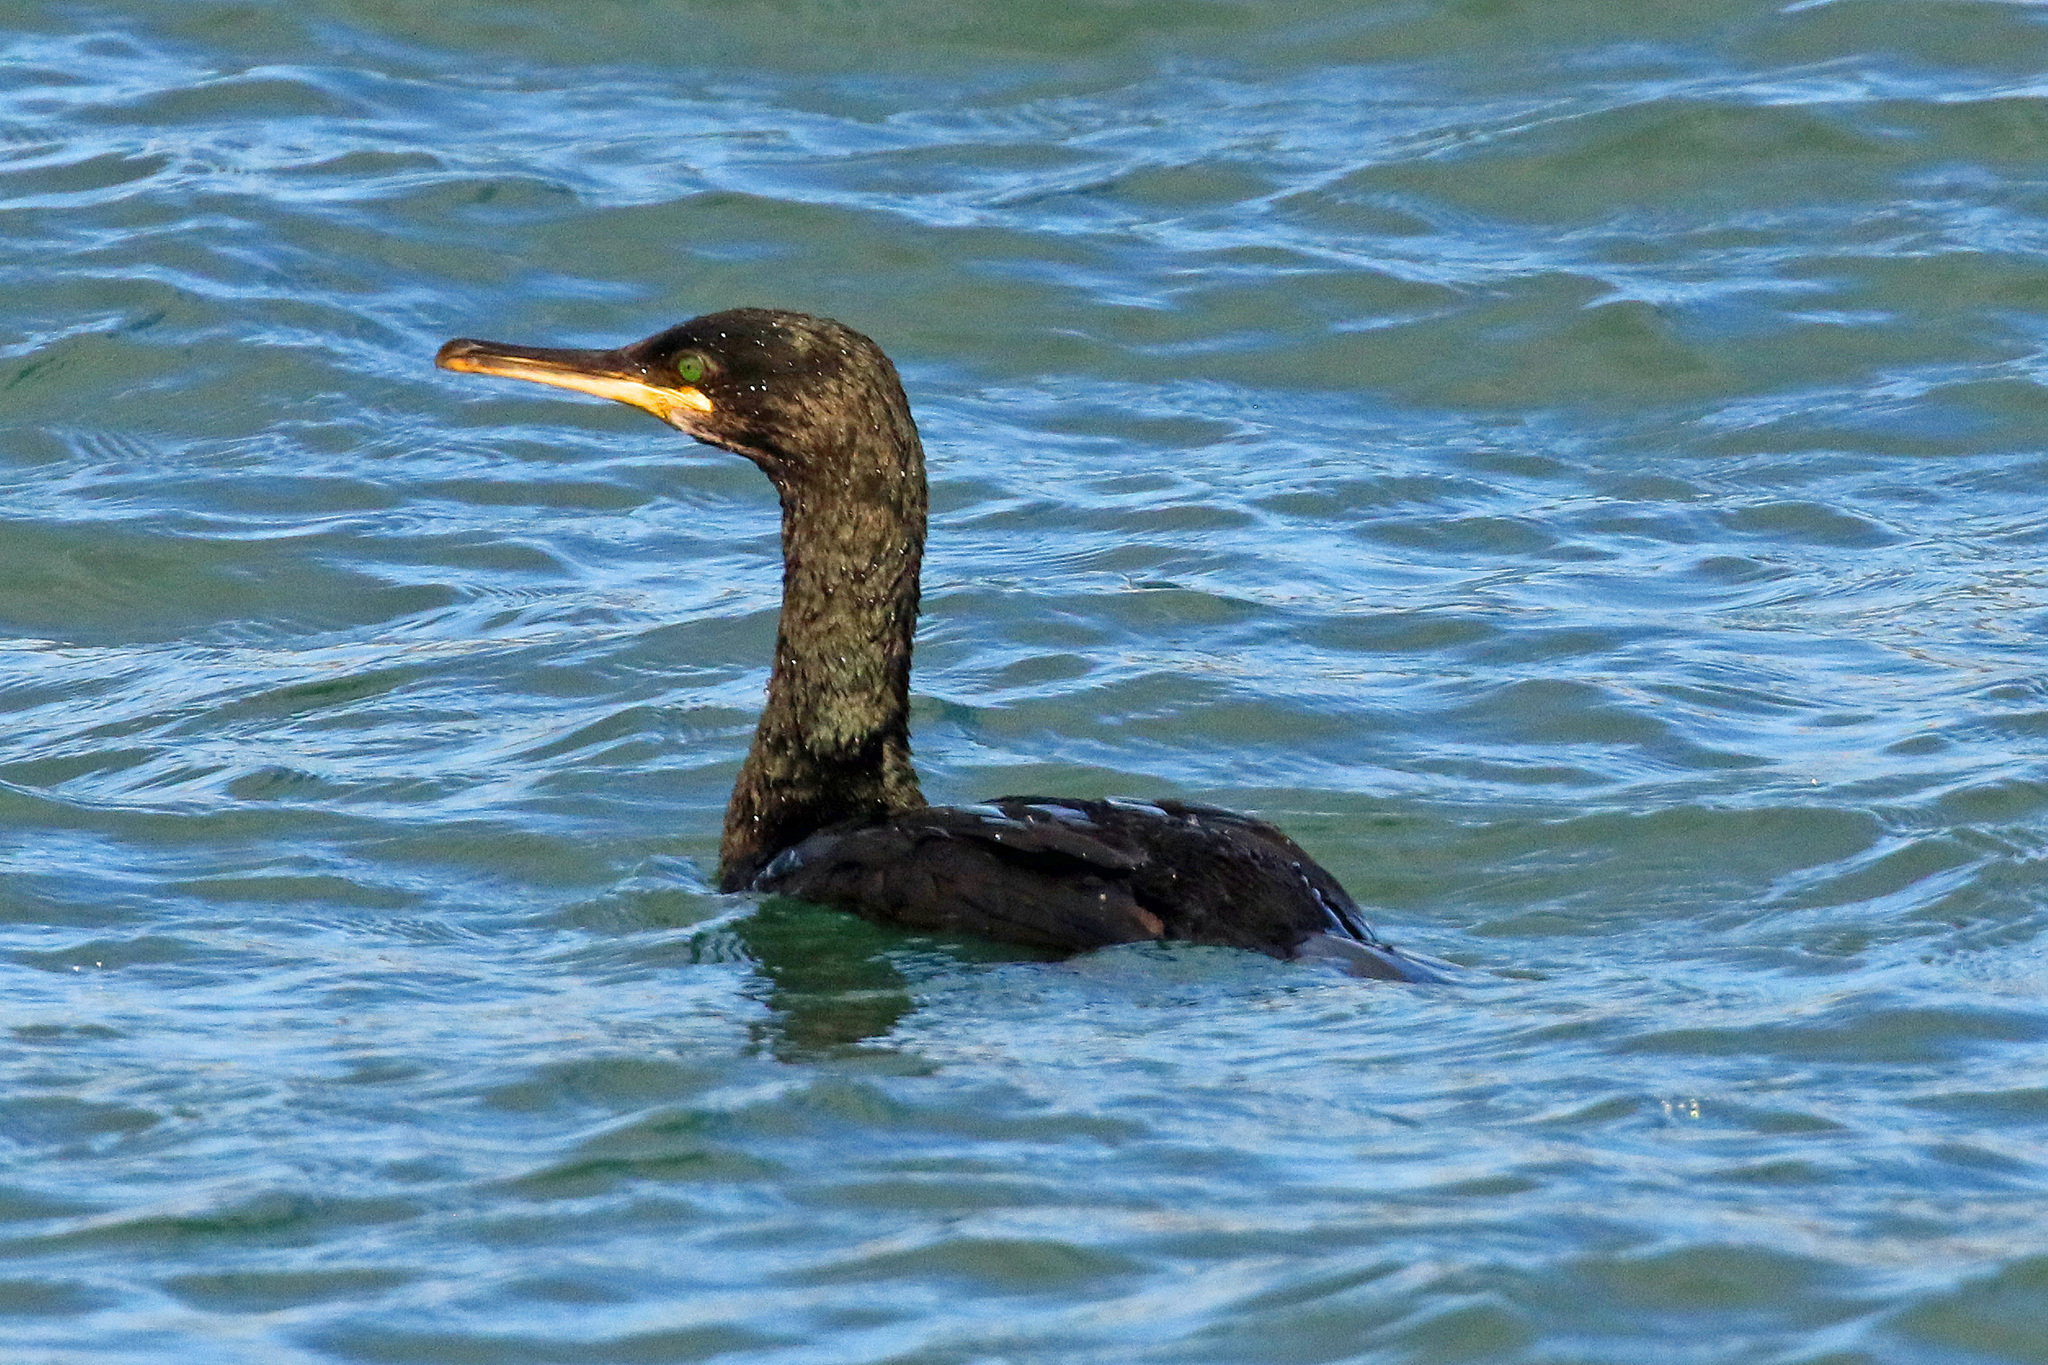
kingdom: Animalia
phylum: Chordata
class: Aves
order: Suliformes
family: Phalacrocoracidae
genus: Phalacrocorax
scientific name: Phalacrocorax aristotelis
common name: European shag
